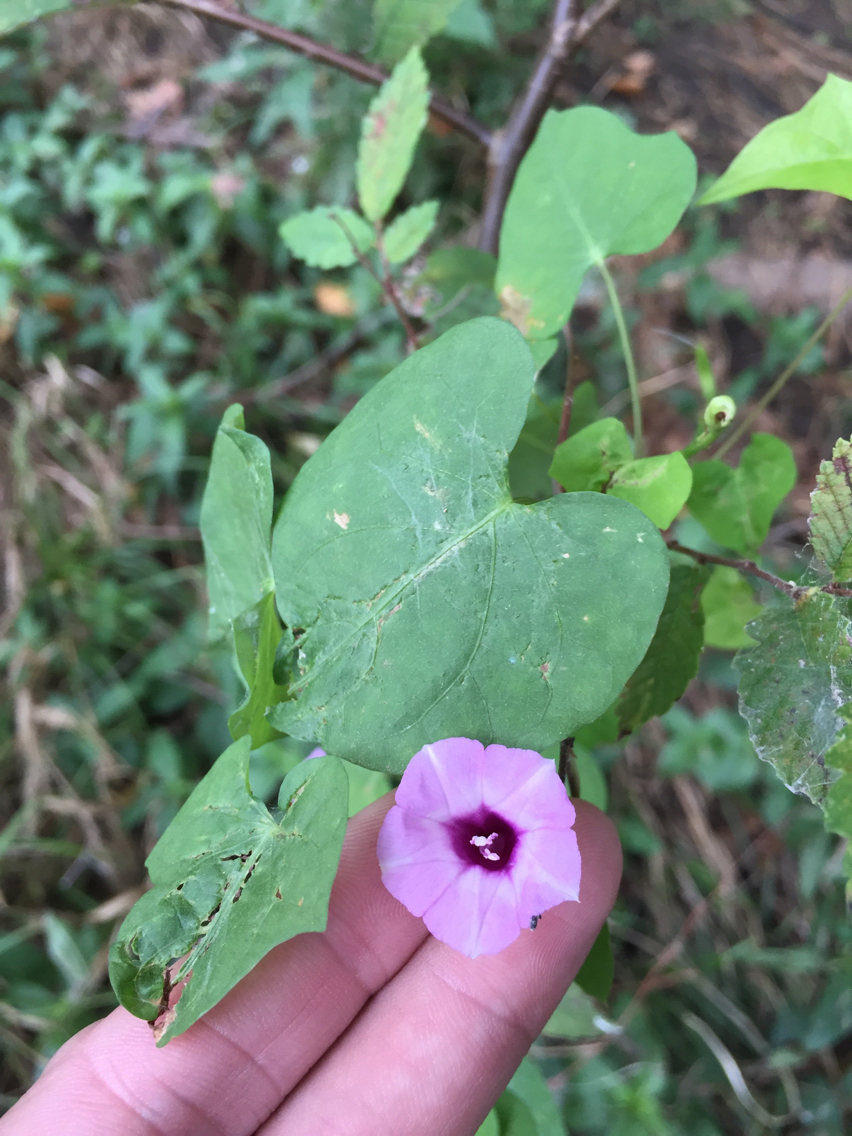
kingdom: Plantae
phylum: Tracheophyta
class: Magnoliopsida
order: Solanales
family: Convolvulaceae
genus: Ipomoea
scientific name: Ipomoea cordatotriloba
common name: Cotton morning glory
